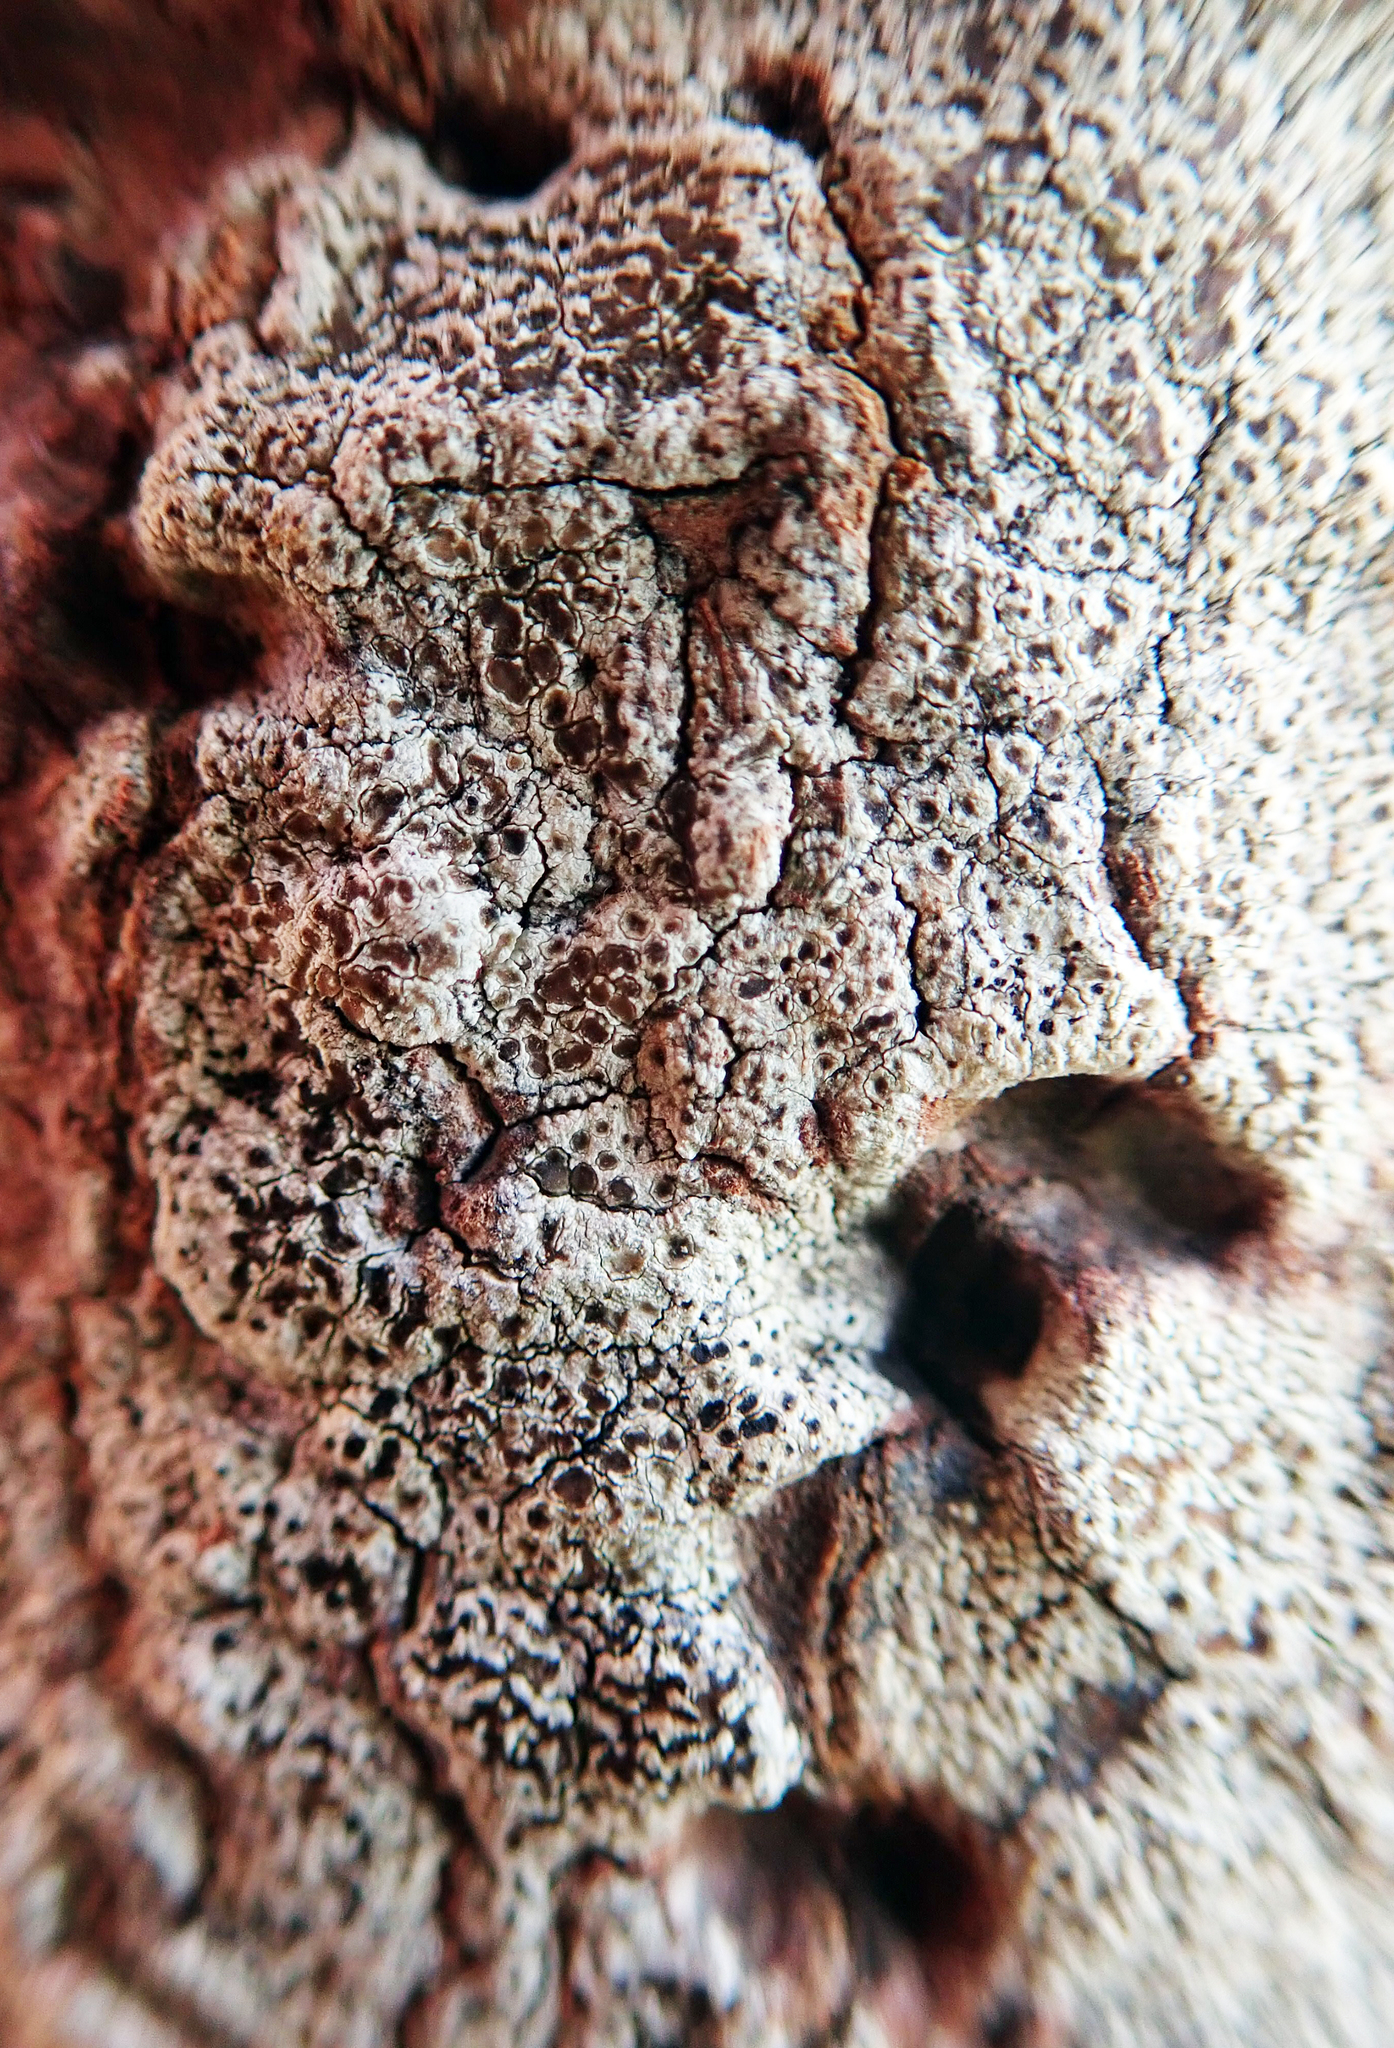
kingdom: Fungi
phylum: Ascomycota
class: Lecanoromycetes
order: Lecanorales
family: Lecanoraceae
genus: Lecanora
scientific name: Lecanora kohu
